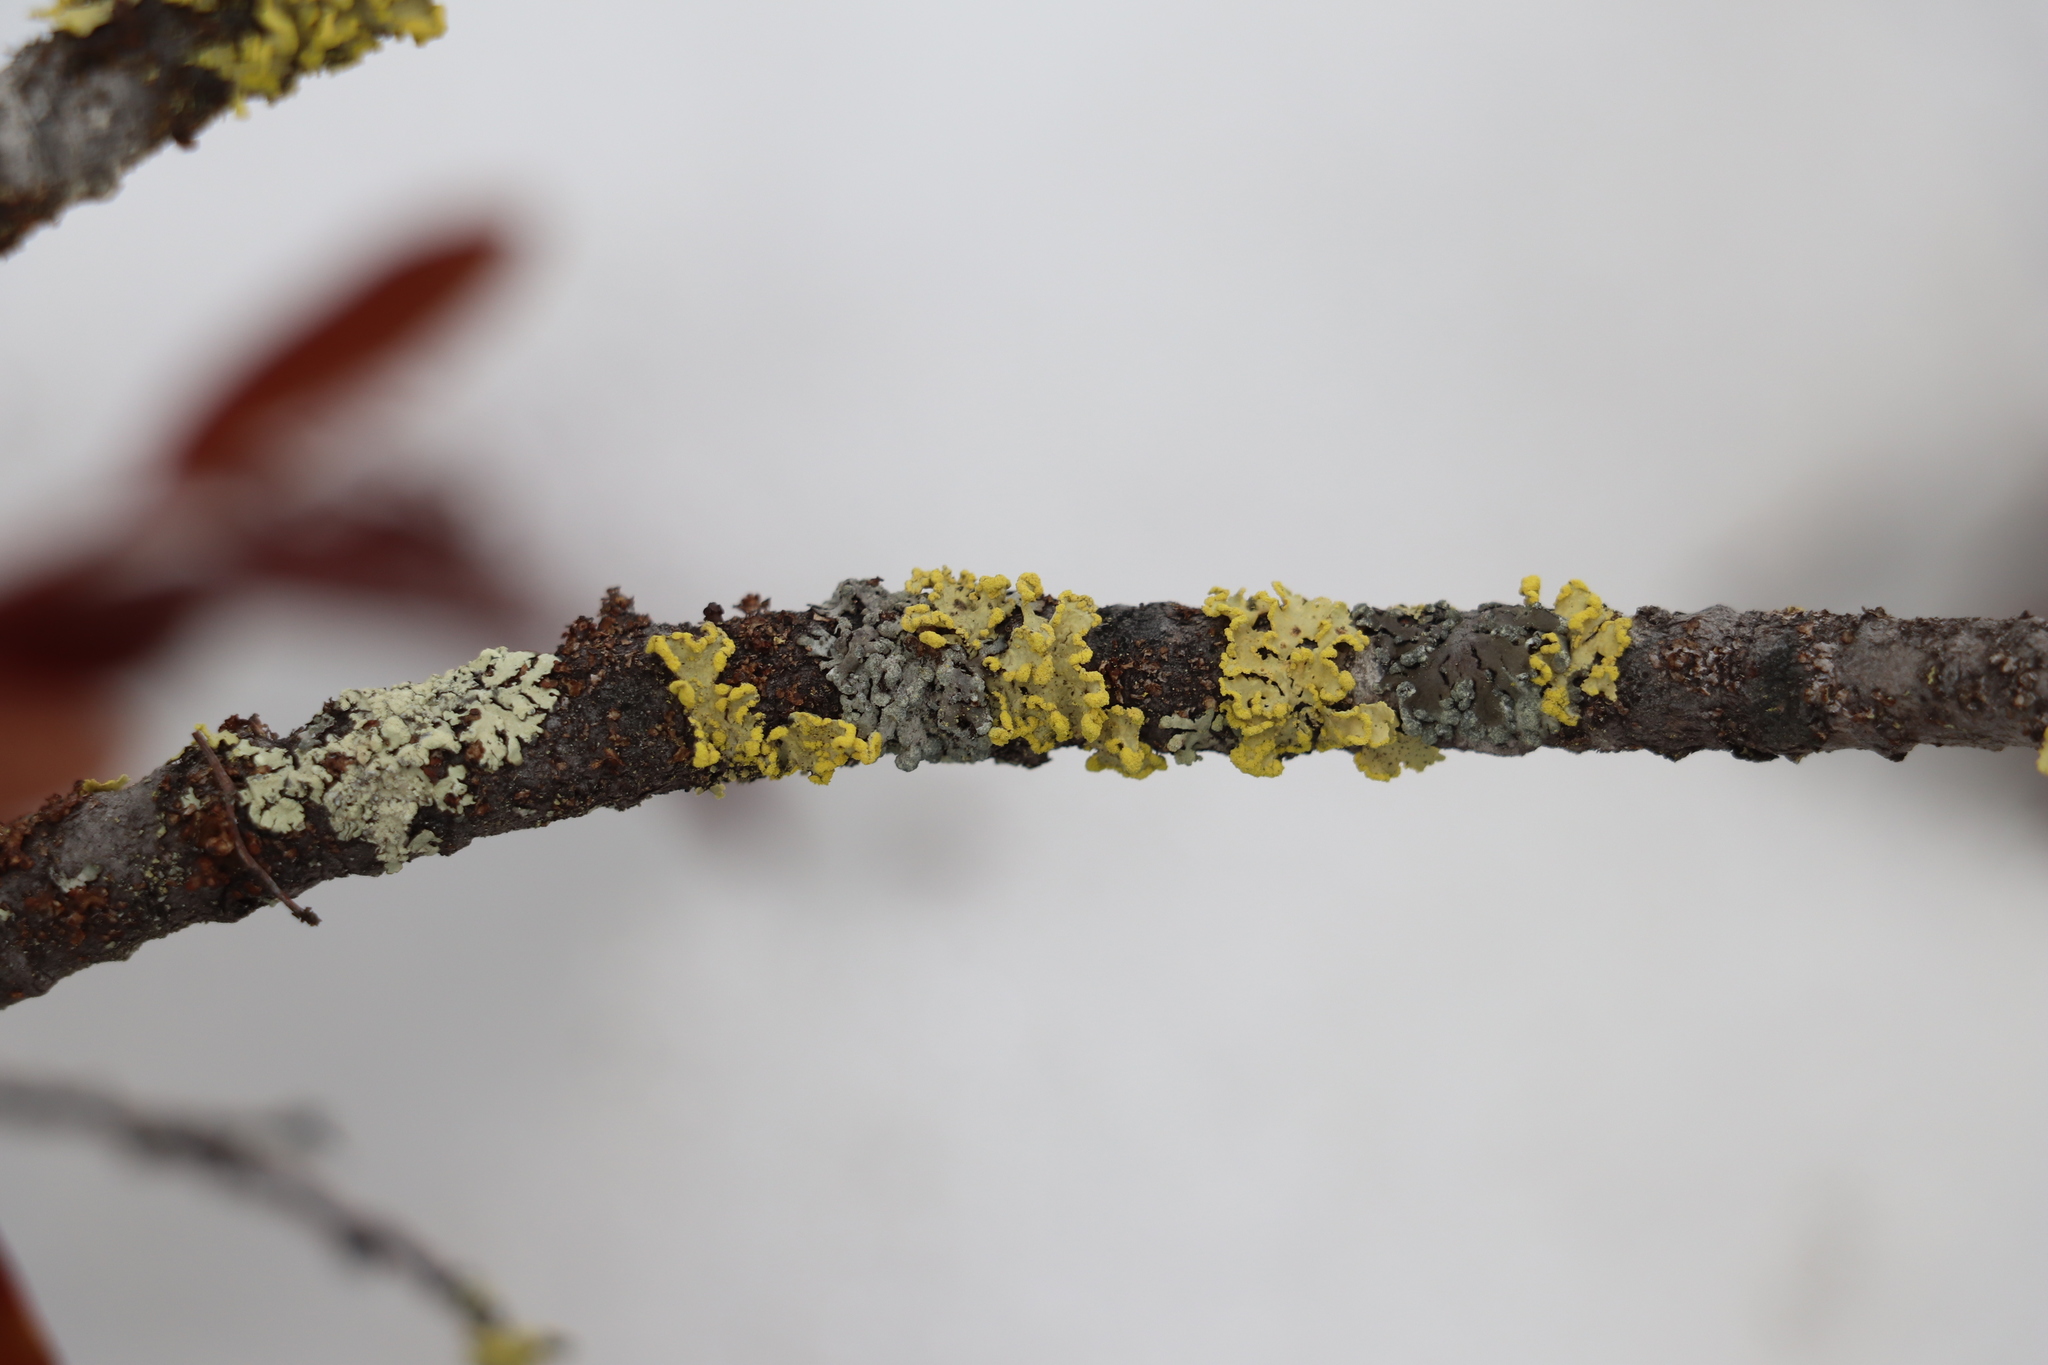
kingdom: Fungi
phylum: Ascomycota
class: Lecanoromycetes
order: Lecanorales
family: Parmeliaceae
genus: Vulpicida
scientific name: Vulpicida pinastri
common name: Powdered sunshine lichen
